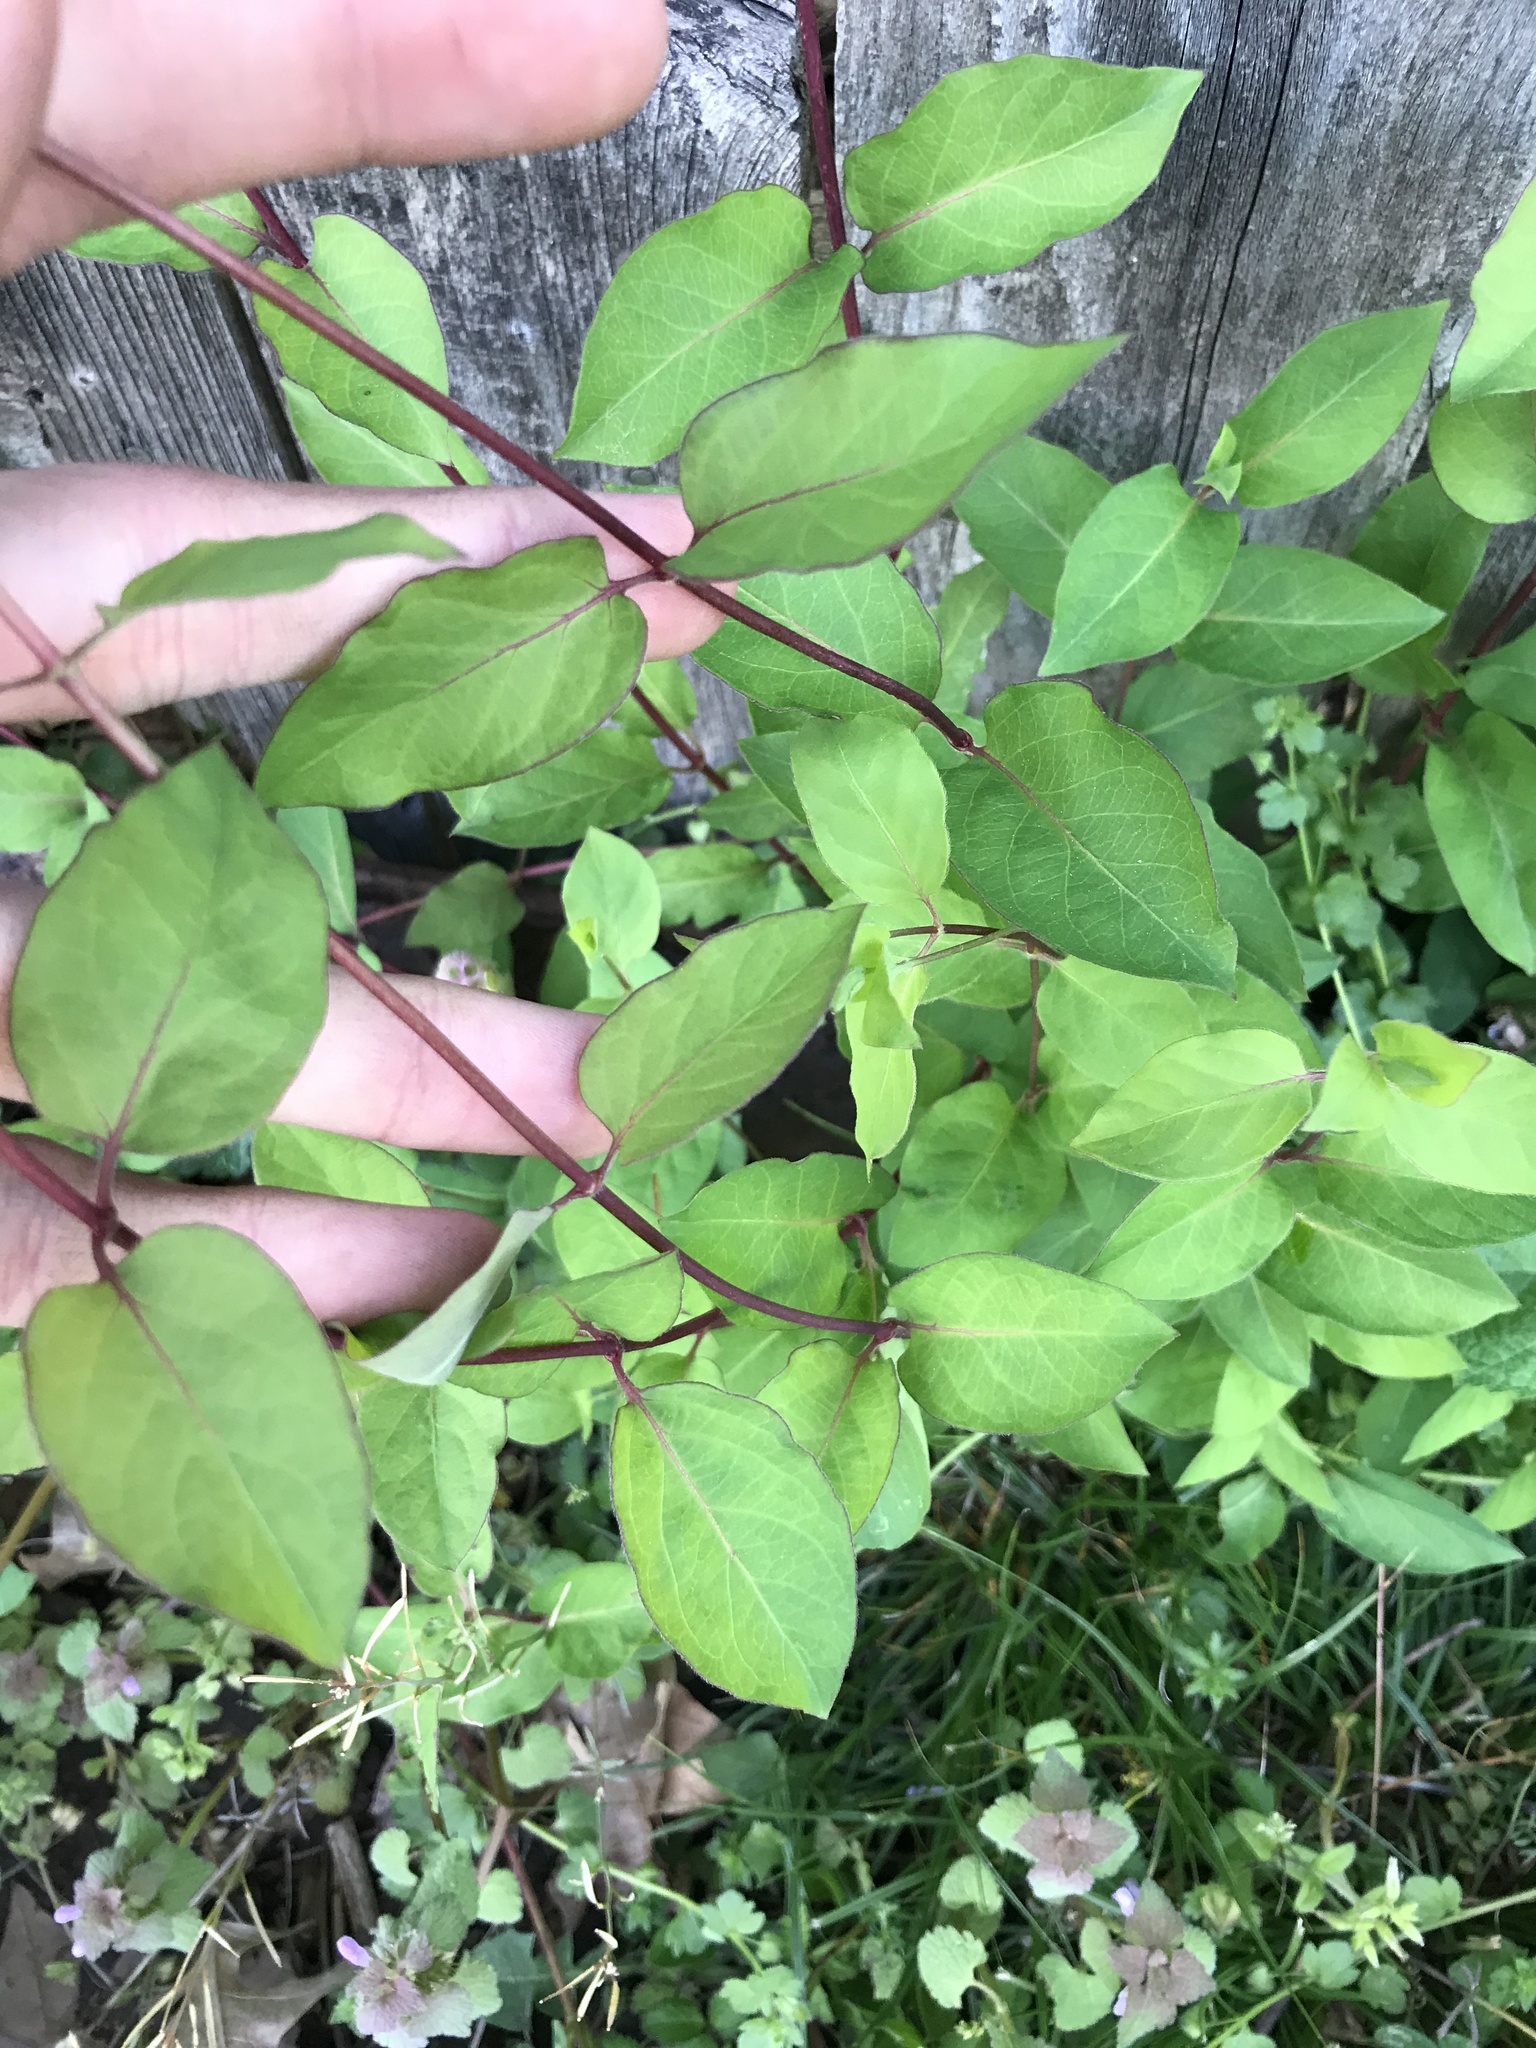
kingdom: Plantae
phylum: Tracheophyta
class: Magnoliopsida
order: Dipsacales
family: Caprifoliaceae
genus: Lonicera
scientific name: Lonicera japonica
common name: Japanese honeysuckle
